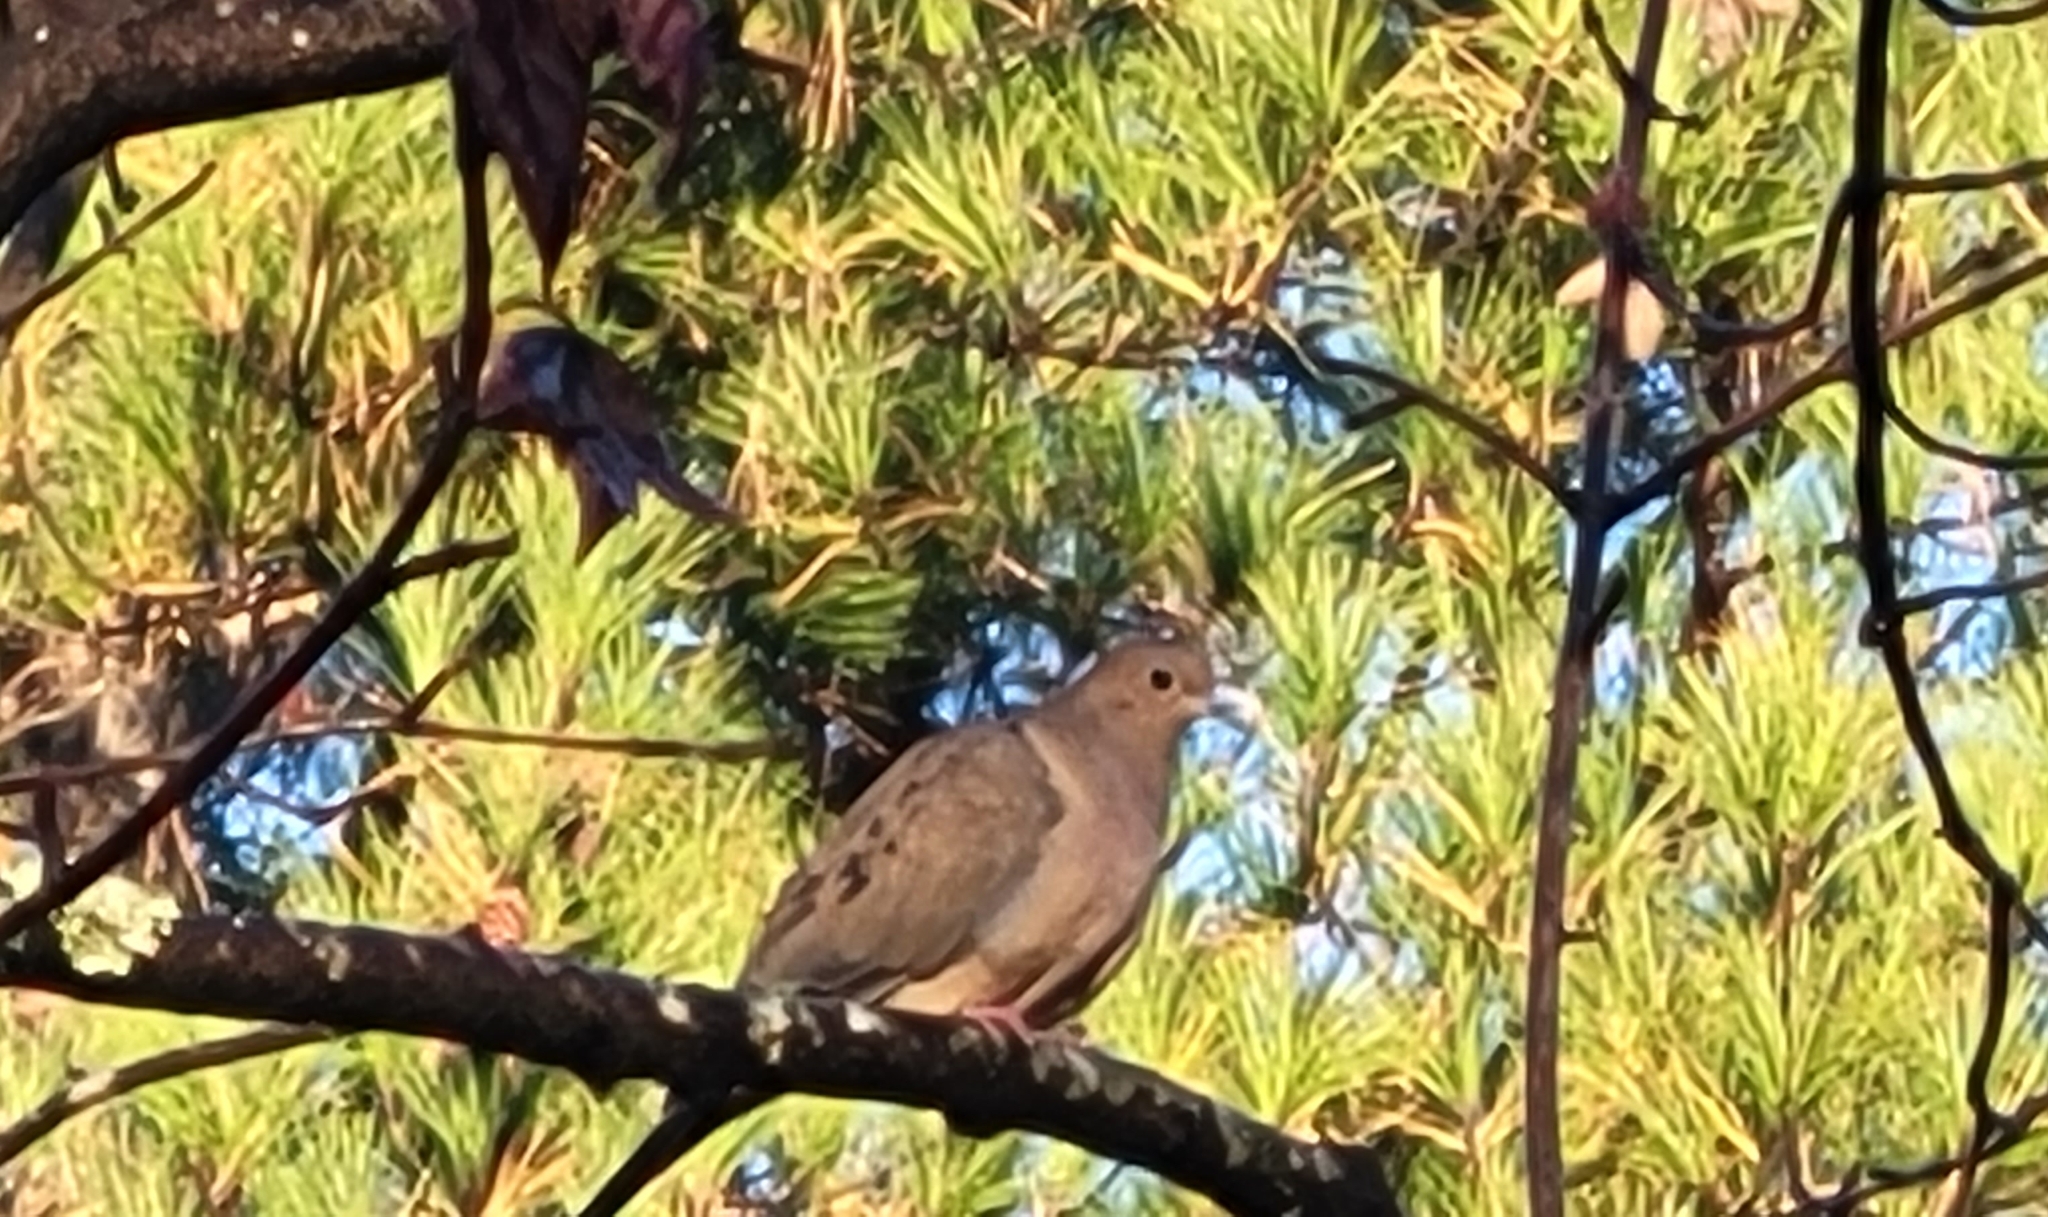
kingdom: Animalia
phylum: Chordata
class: Aves
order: Columbiformes
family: Columbidae
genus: Zenaida
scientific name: Zenaida macroura
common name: Mourning dove
